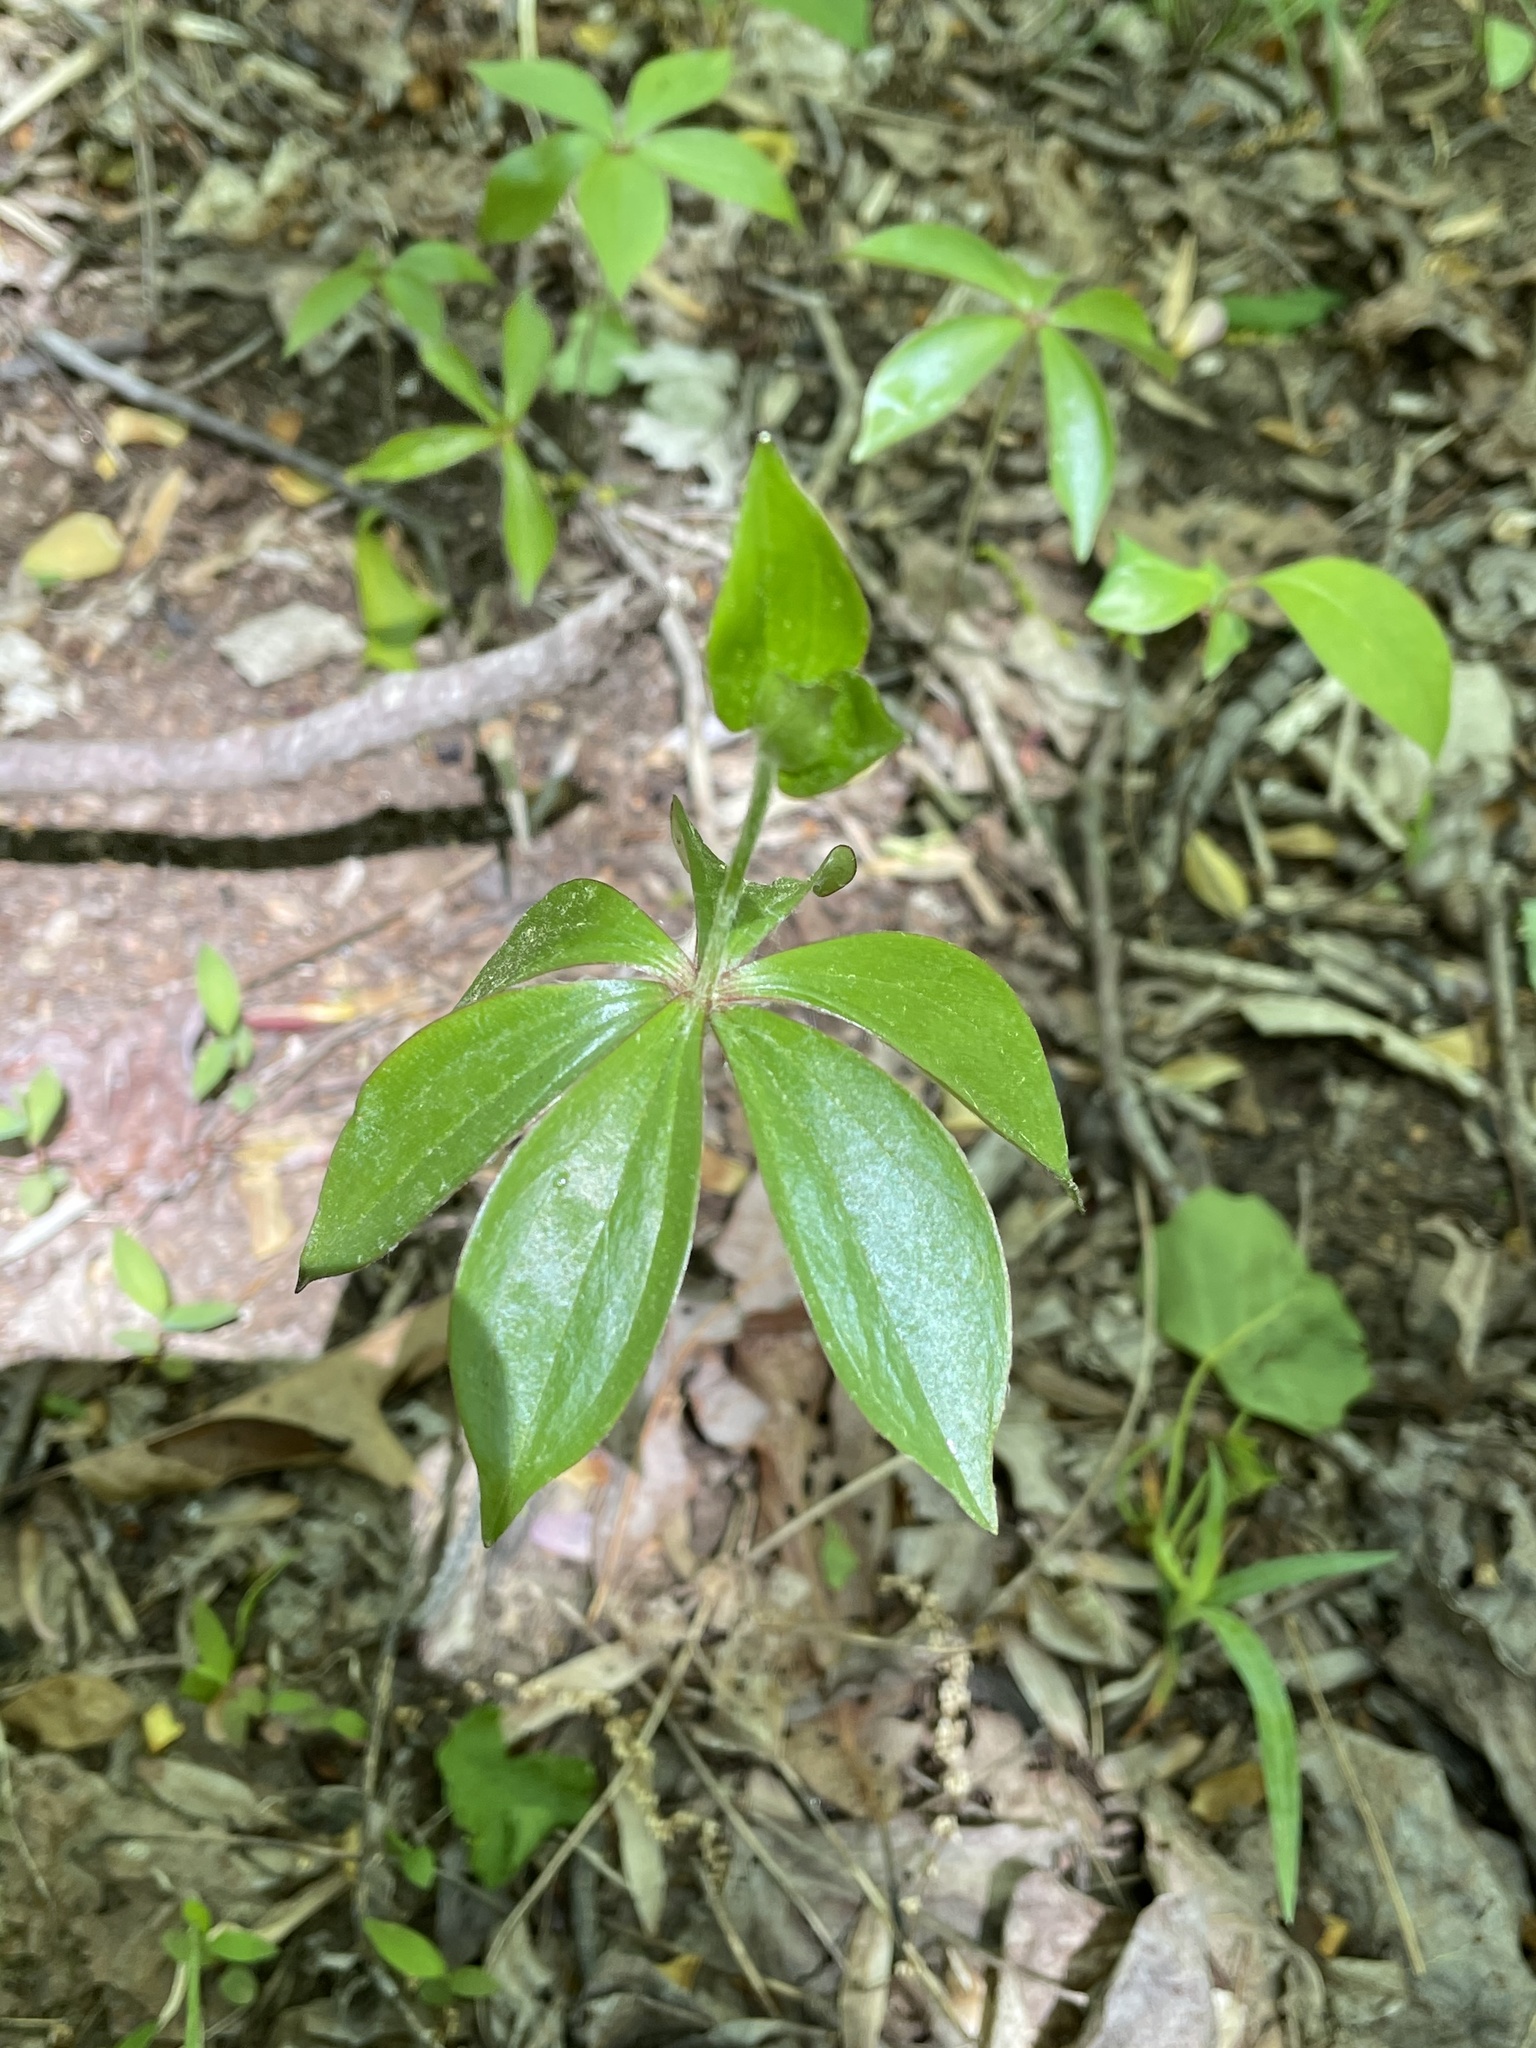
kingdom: Plantae
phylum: Tracheophyta
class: Liliopsida
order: Liliales
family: Liliaceae
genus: Medeola
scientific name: Medeola virginiana
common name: Indian cucumber-root
